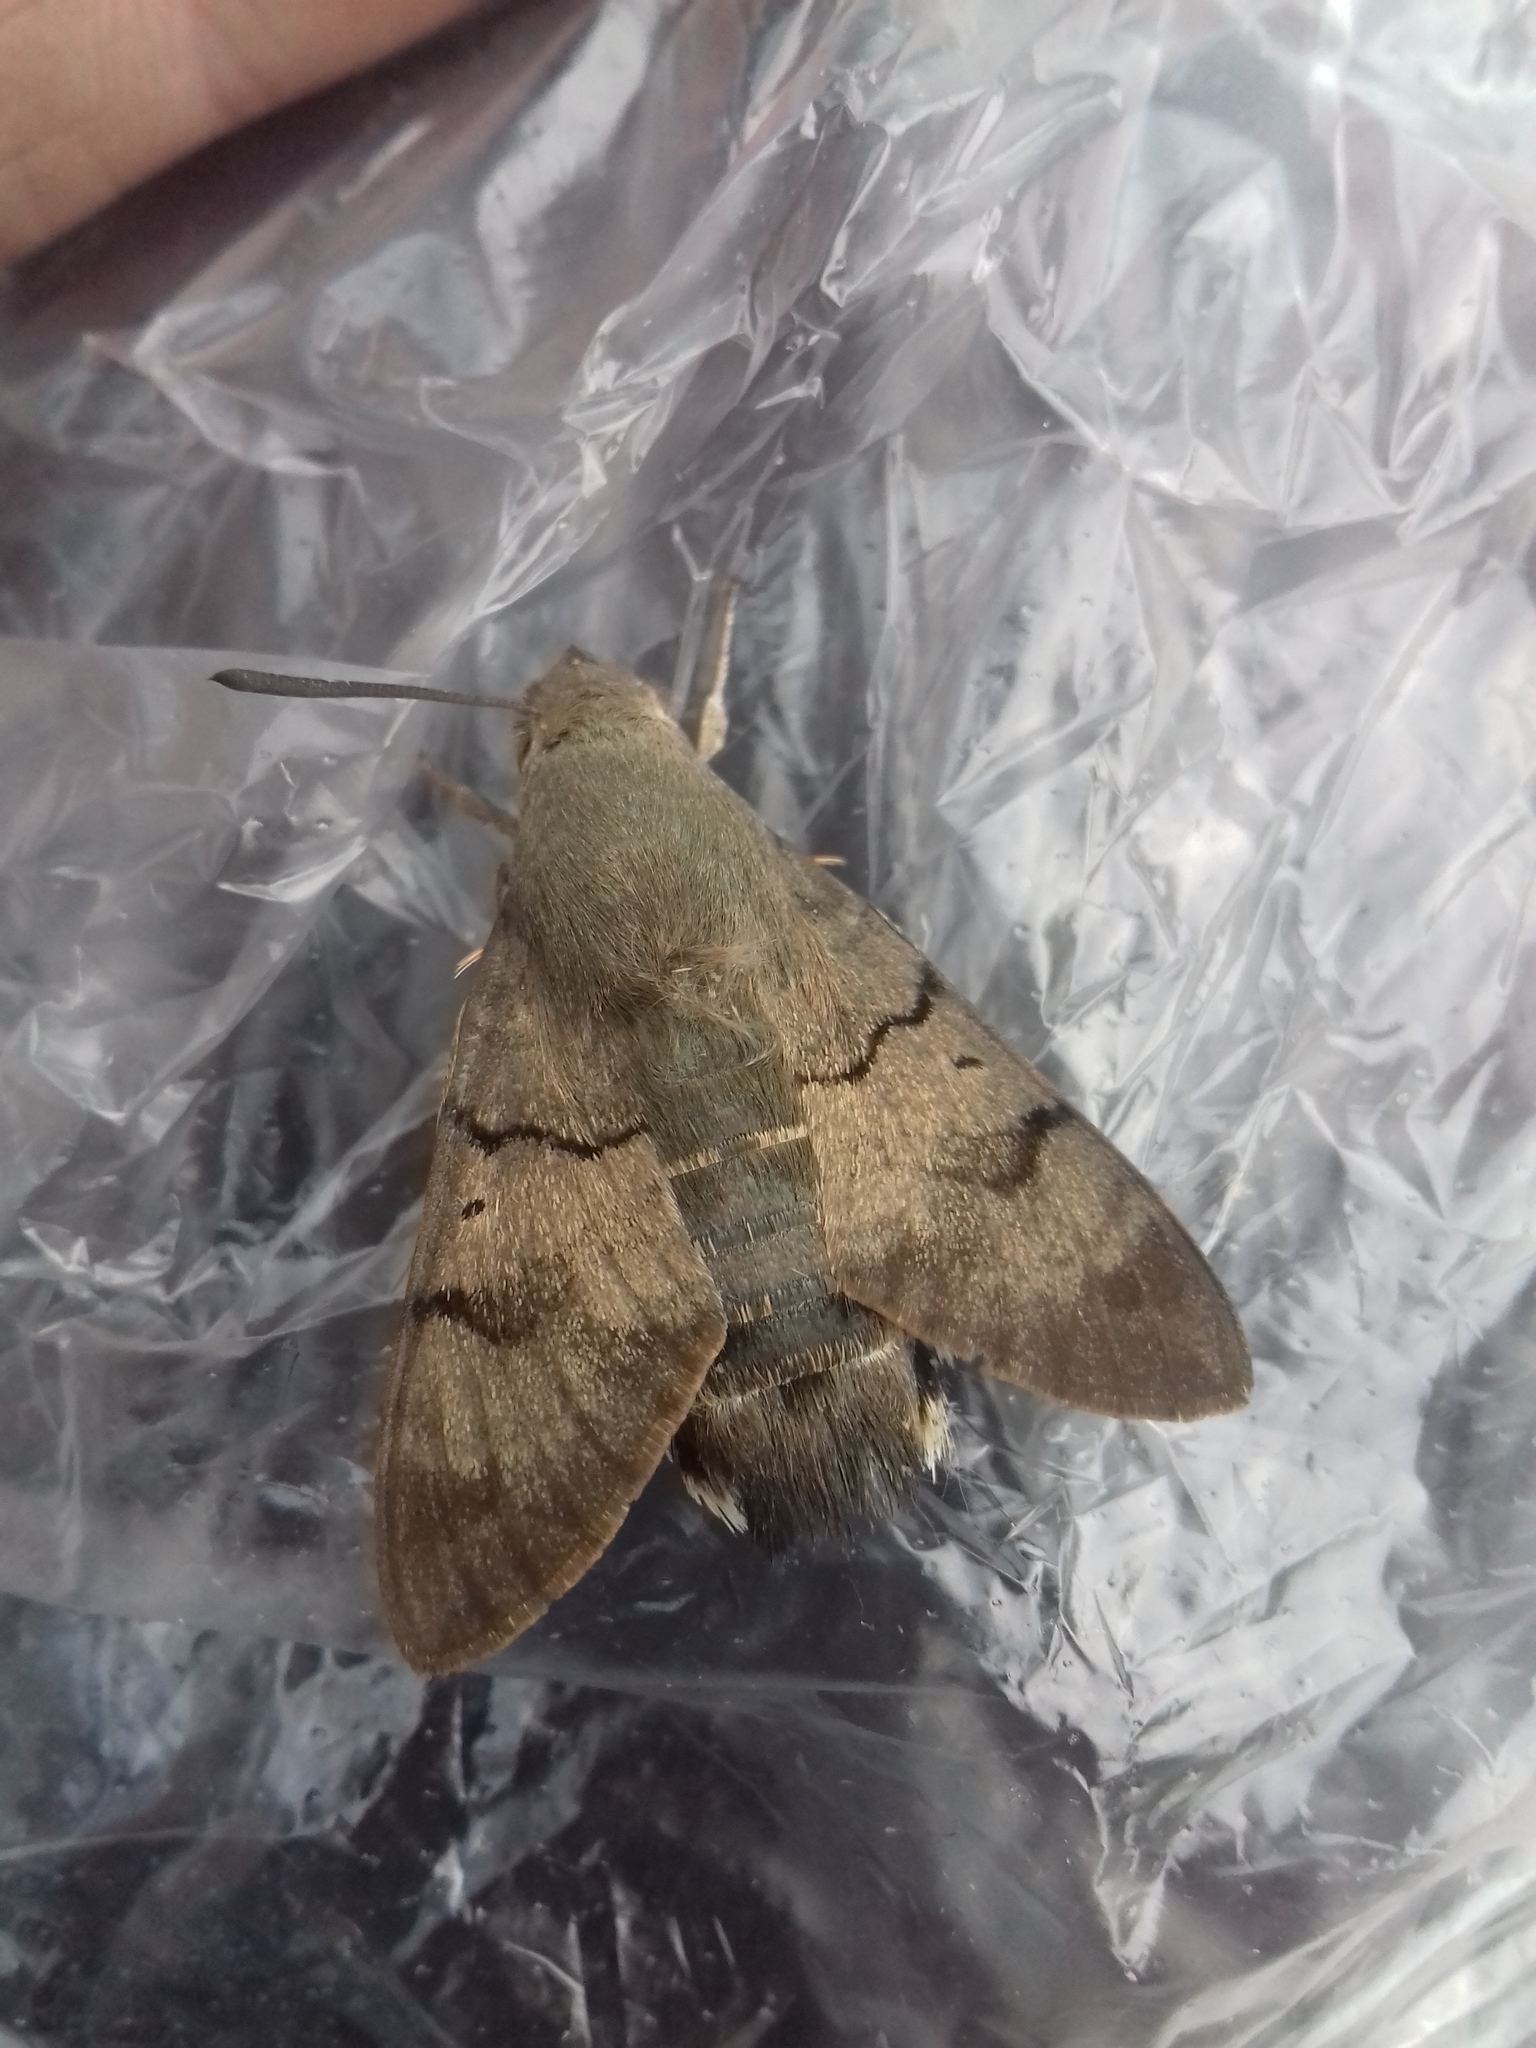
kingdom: Animalia
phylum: Arthropoda
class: Insecta
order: Lepidoptera
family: Sphingidae
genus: Macroglossum
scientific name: Macroglossum stellatarum
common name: Humming-bird hawk-moth
